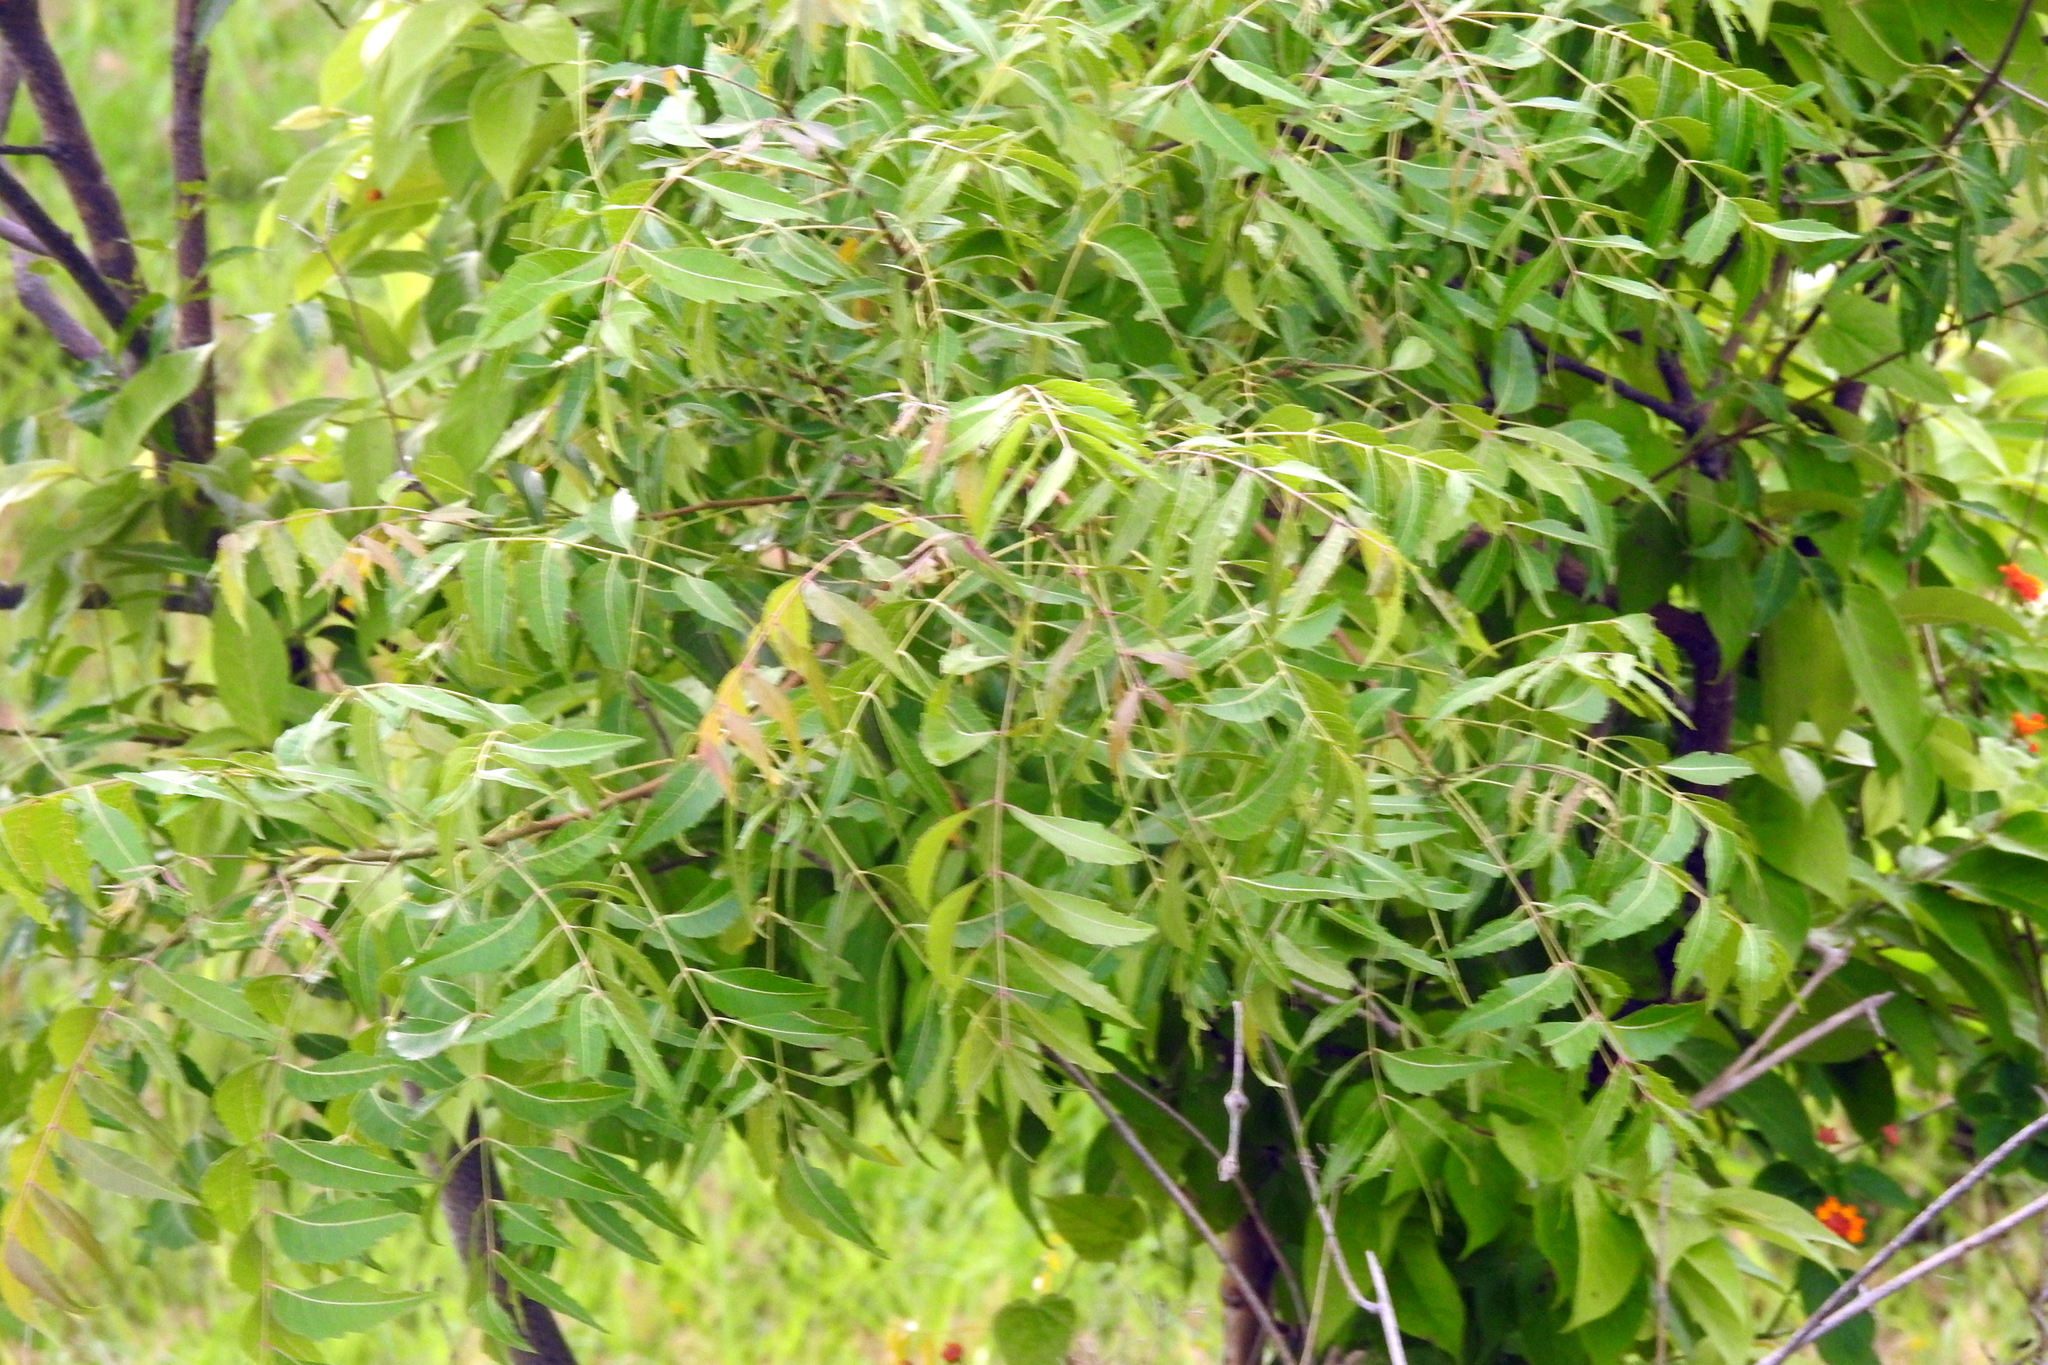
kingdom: Plantae
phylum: Tracheophyta
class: Magnoliopsida
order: Sapindales
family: Meliaceae
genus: Azadirachta
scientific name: Azadirachta indica
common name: Neem
